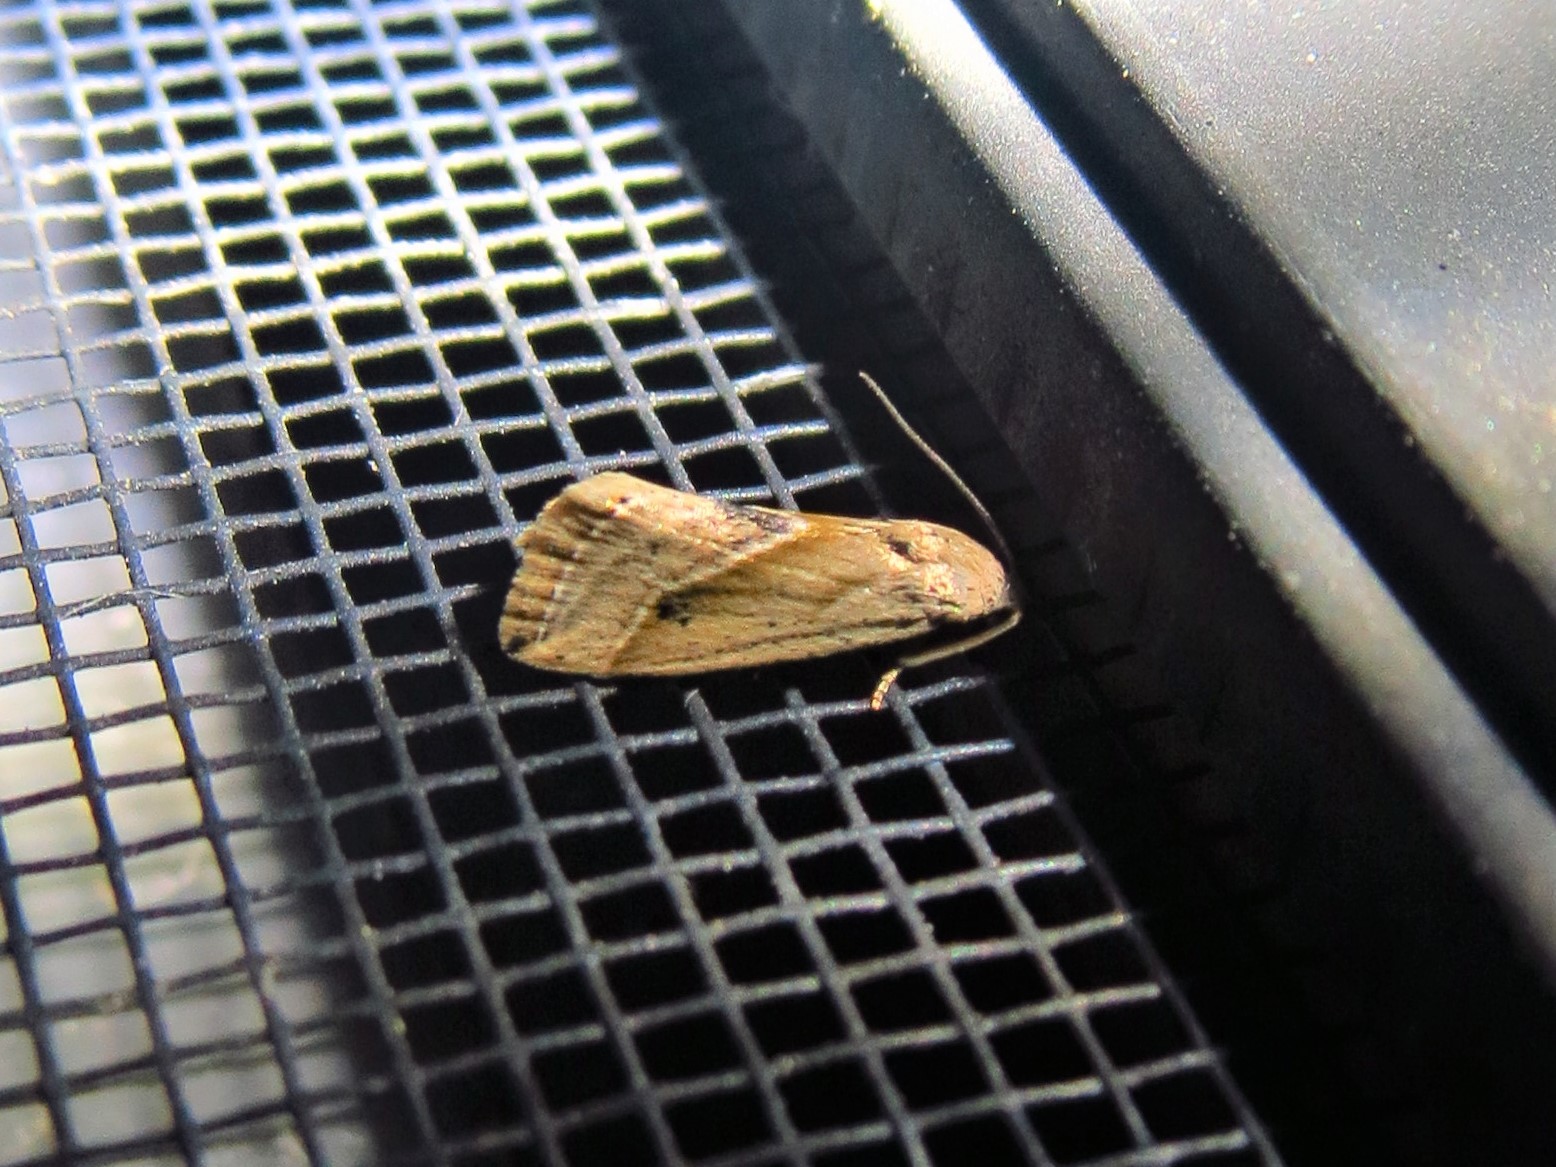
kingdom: Animalia
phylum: Arthropoda
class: Insecta
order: Lepidoptera
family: Noctuidae
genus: Micrathetis
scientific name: Micrathetis tecnion
